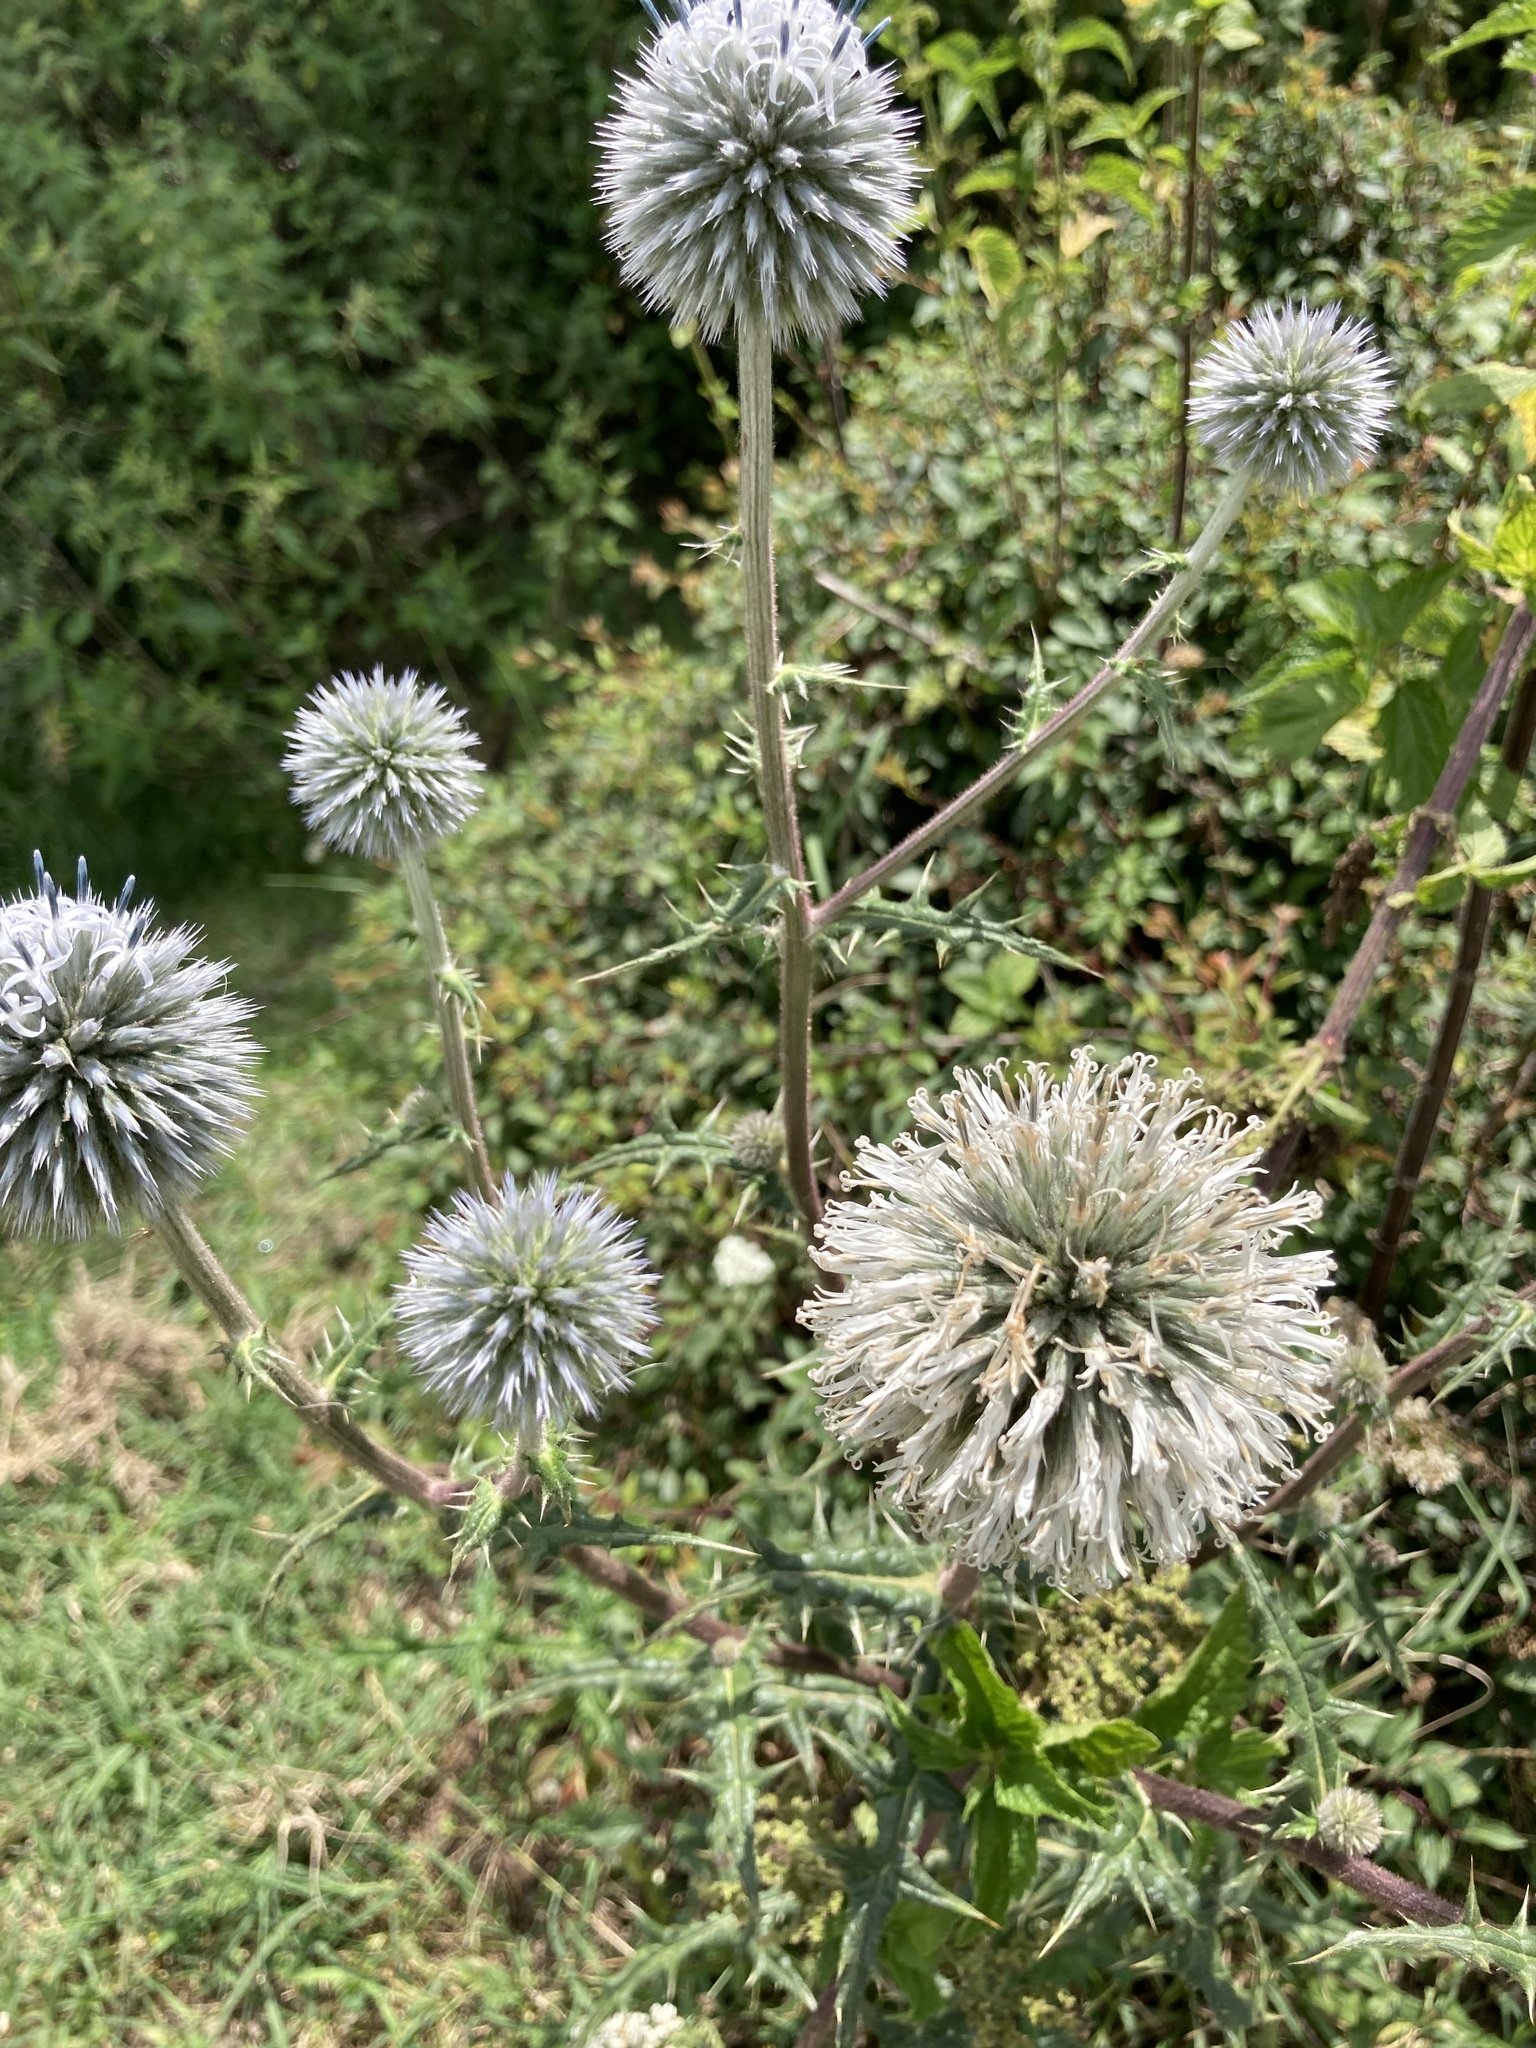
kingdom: Plantae
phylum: Tracheophyta
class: Magnoliopsida
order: Asterales
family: Asteraceae
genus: Echinops
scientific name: Echinops sphaerocephalus
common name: Glandular globe-thistle
